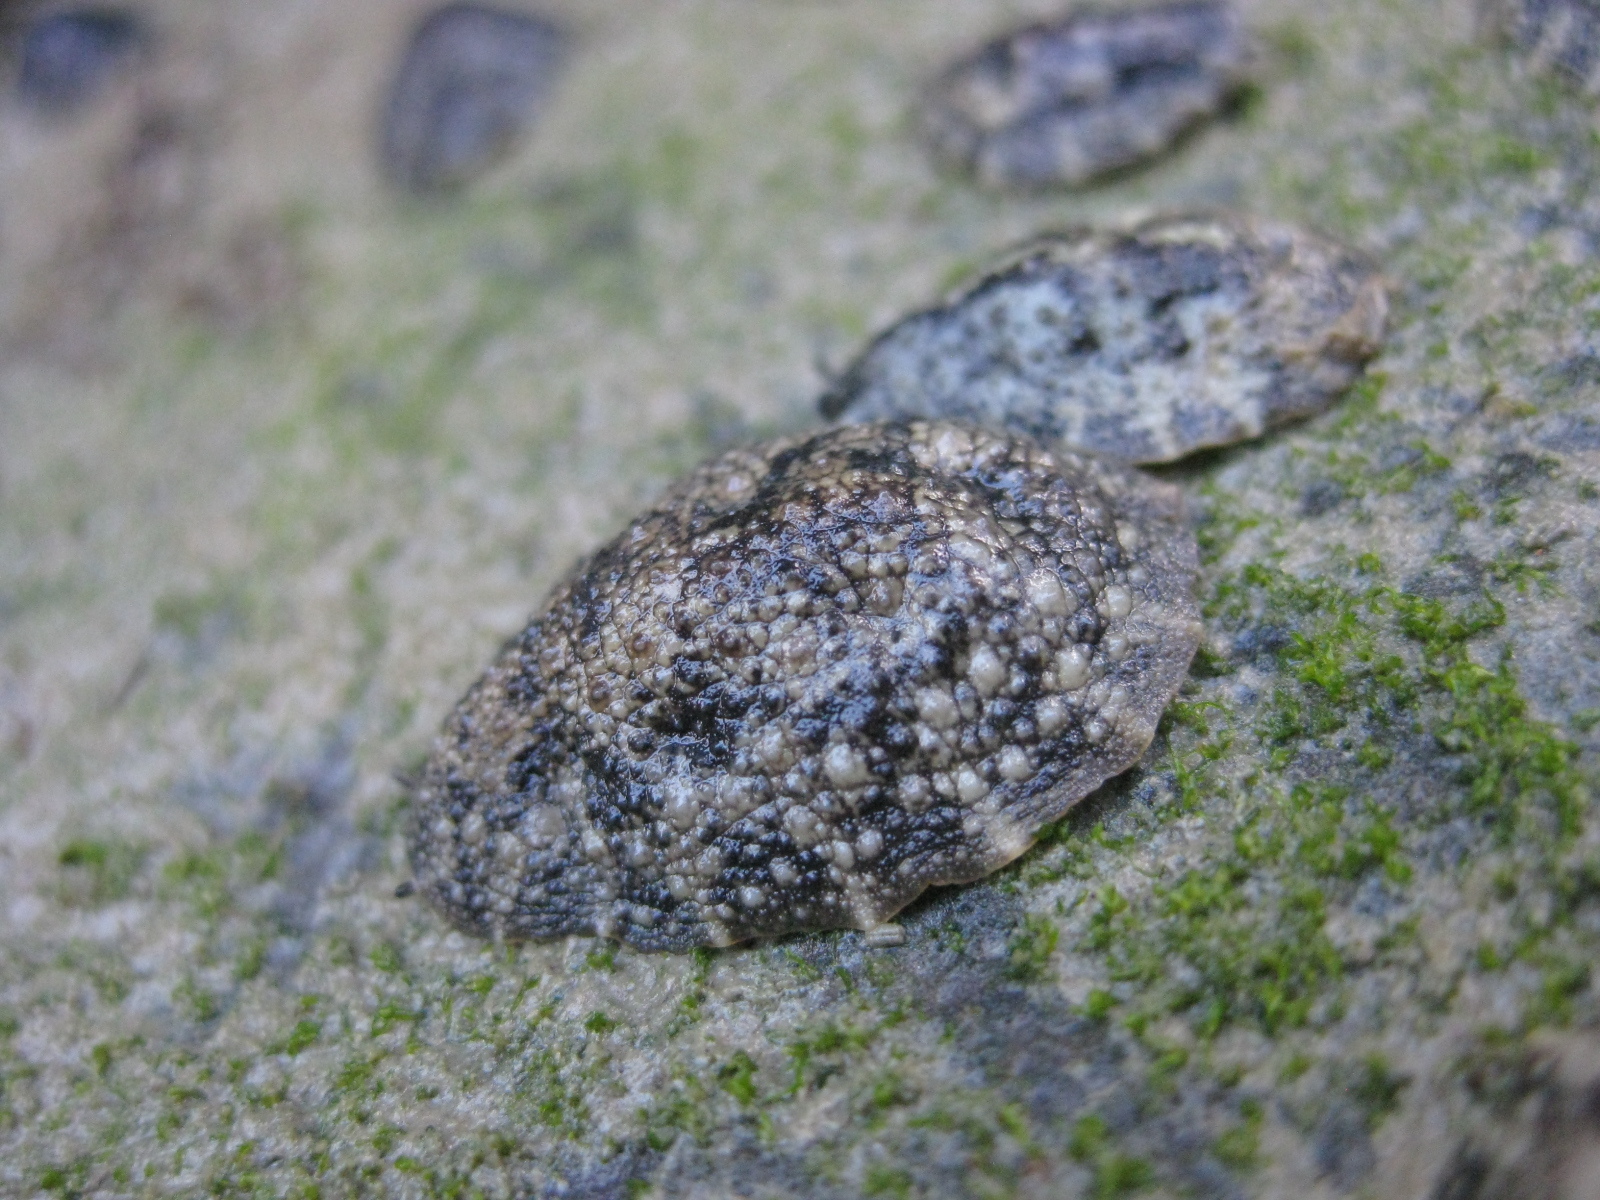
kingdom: Animalia
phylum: Mollusca
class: Gastropoda
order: Systellommatophora
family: Onchidiidae
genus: Onchidella
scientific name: Onchidella nigricans
